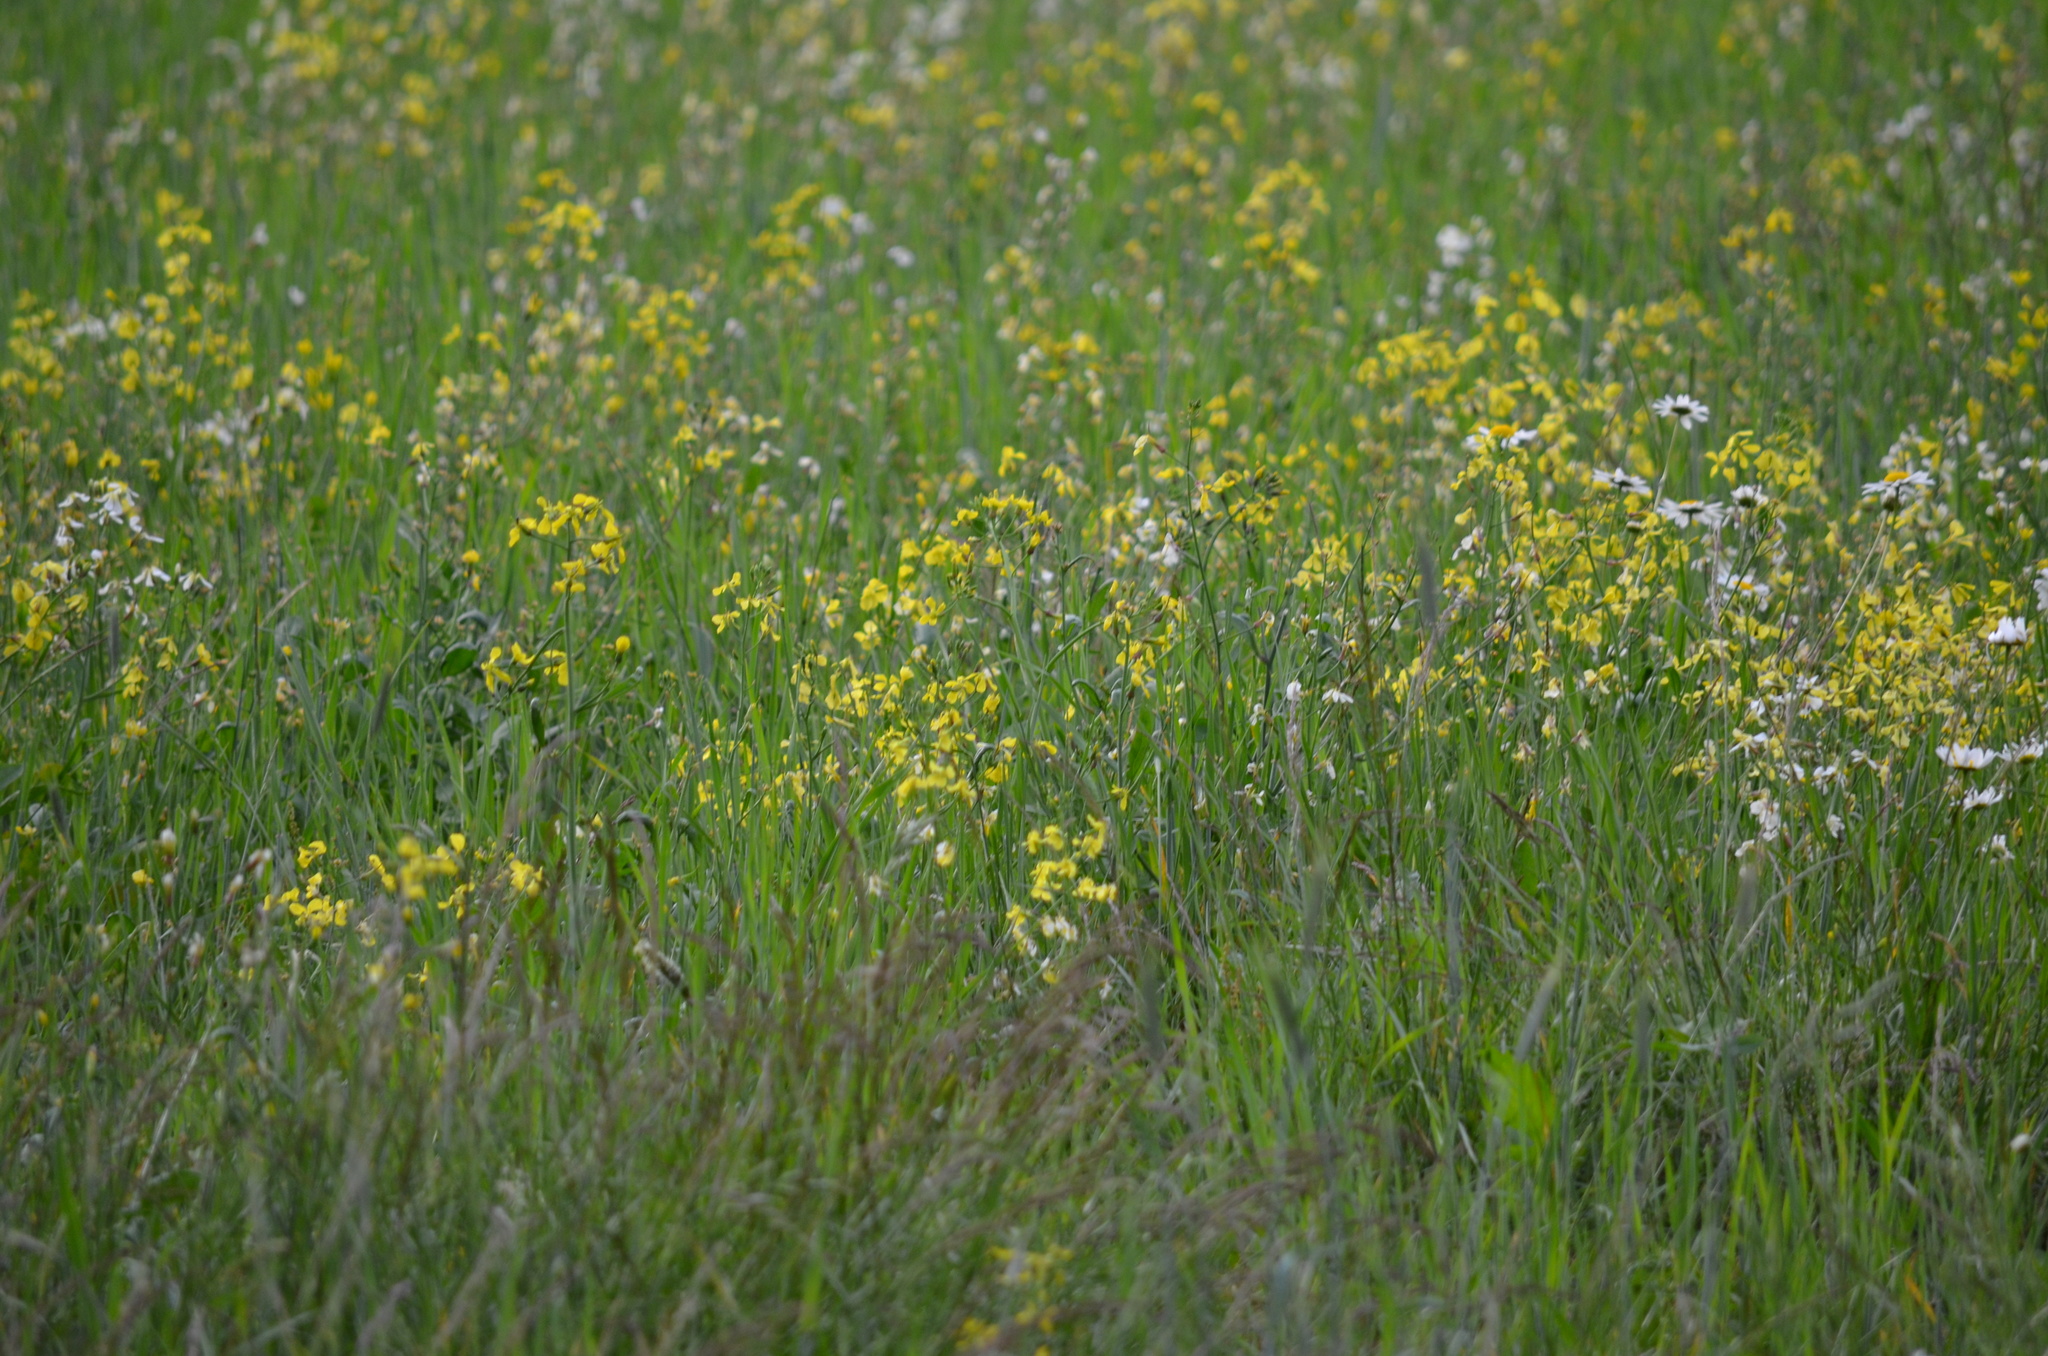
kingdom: Plantae
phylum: Tracheophyta
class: Magnoliopsida
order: Asterales
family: Asteraceae
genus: Leucanthemum
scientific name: Leucanthemum vulgare
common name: Oxeye daisy
